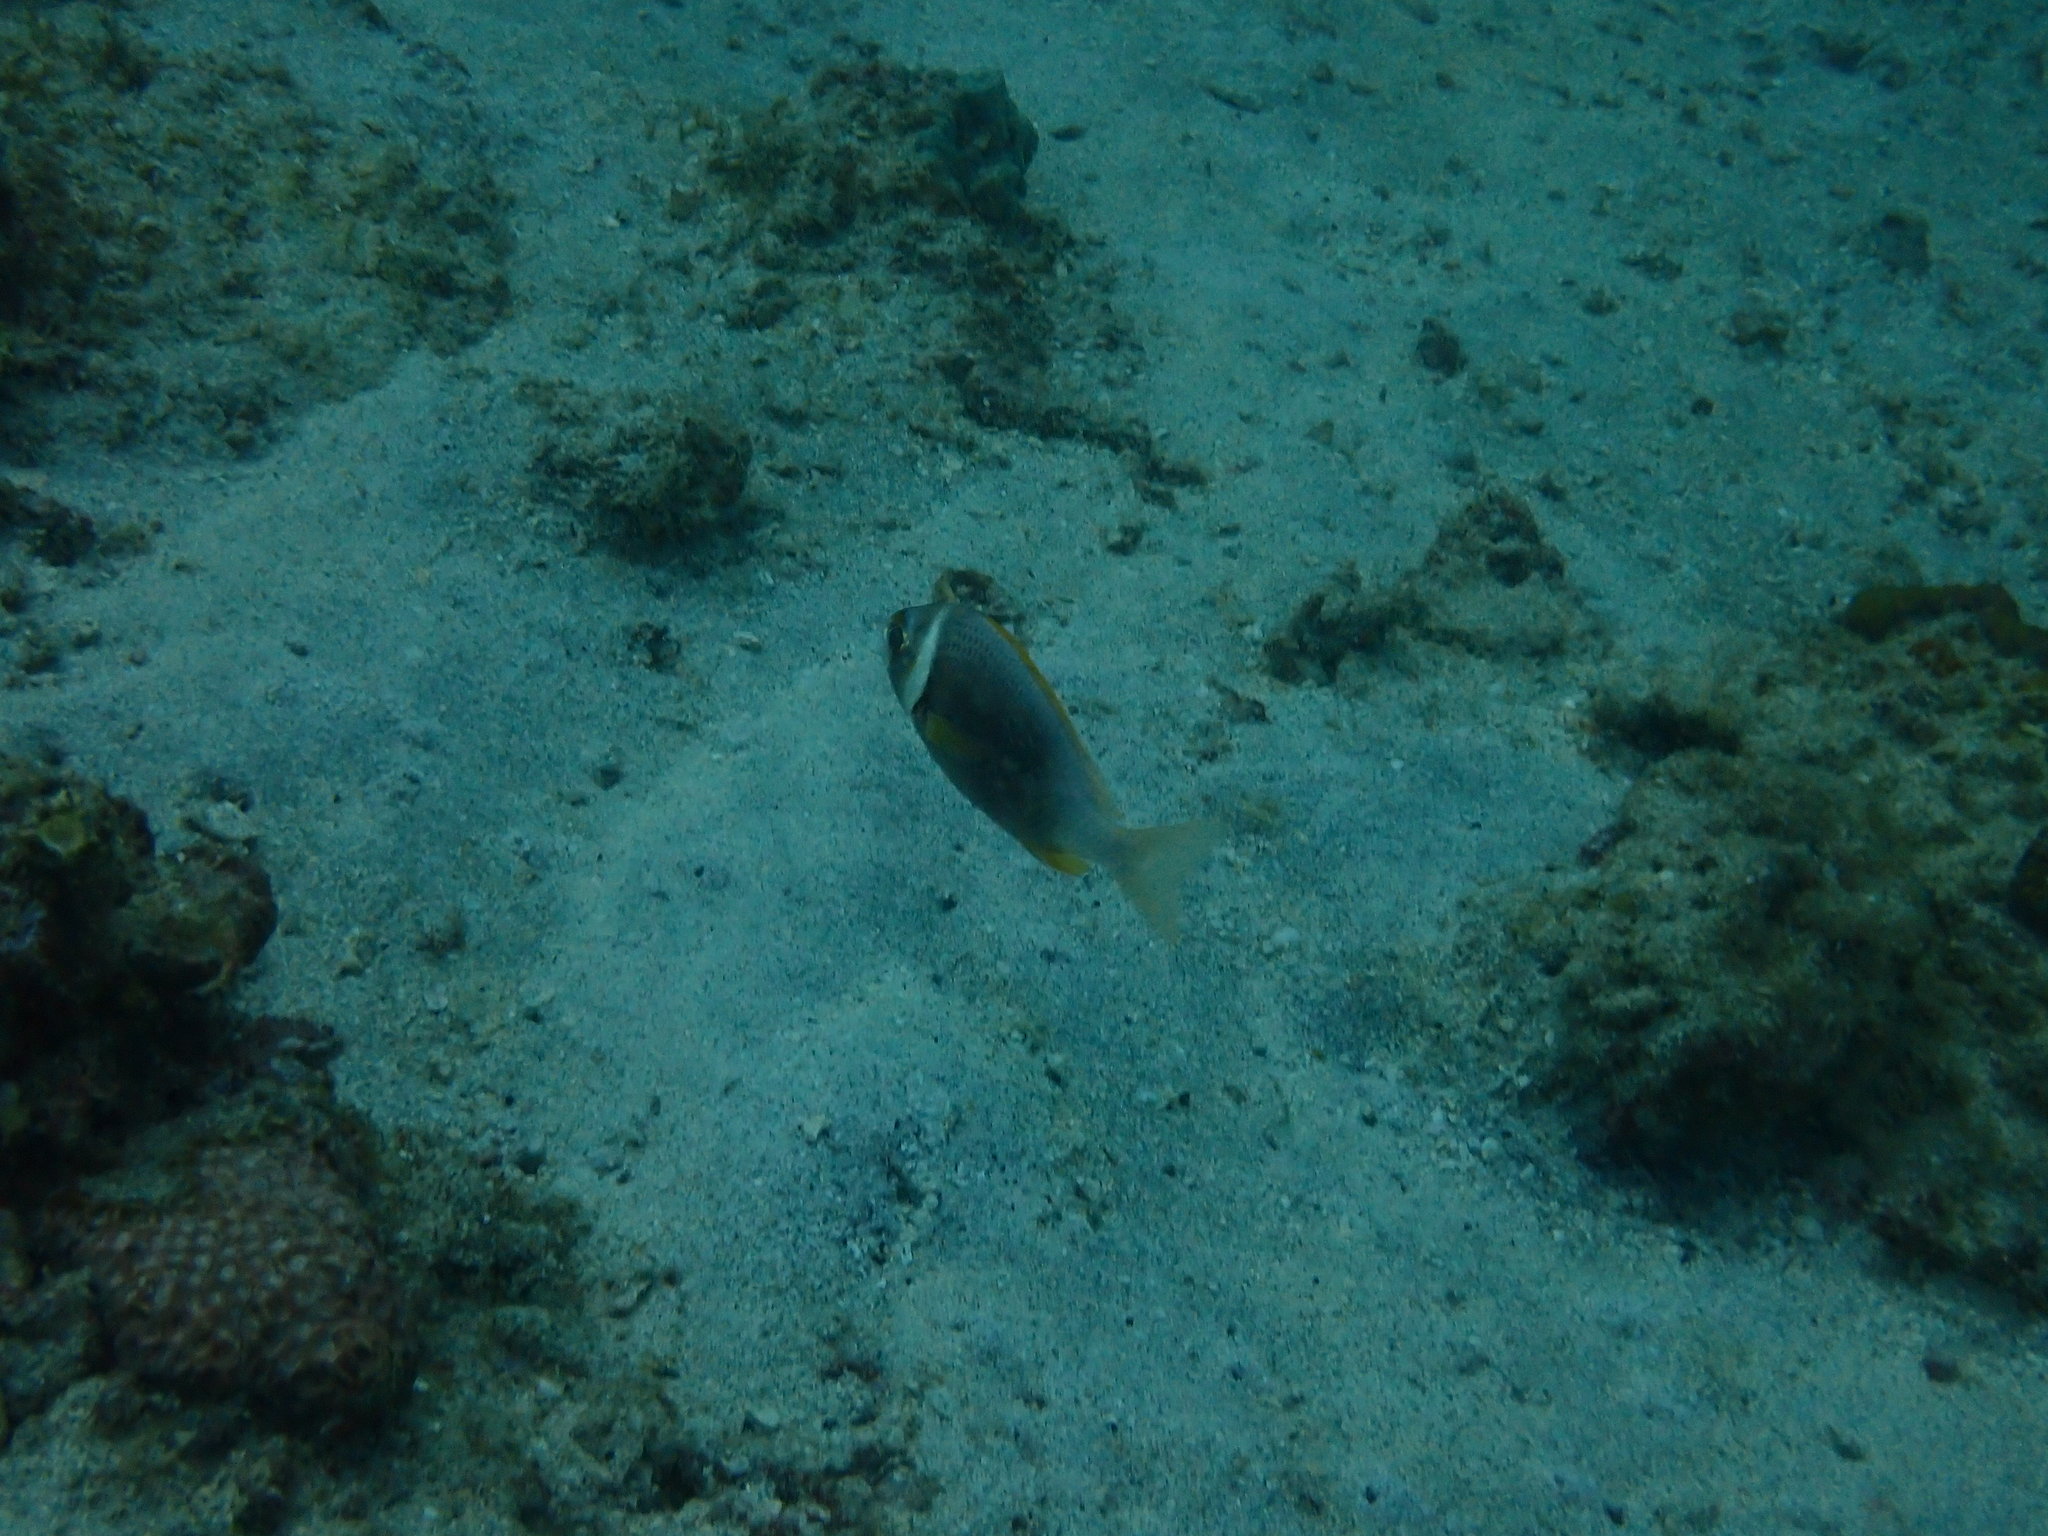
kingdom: Animalia
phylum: Chordata
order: Perciformes
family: Nemipteridae
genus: Scolopsis
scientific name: Scolopsis vosmeri
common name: Whitecheek monocle bream
